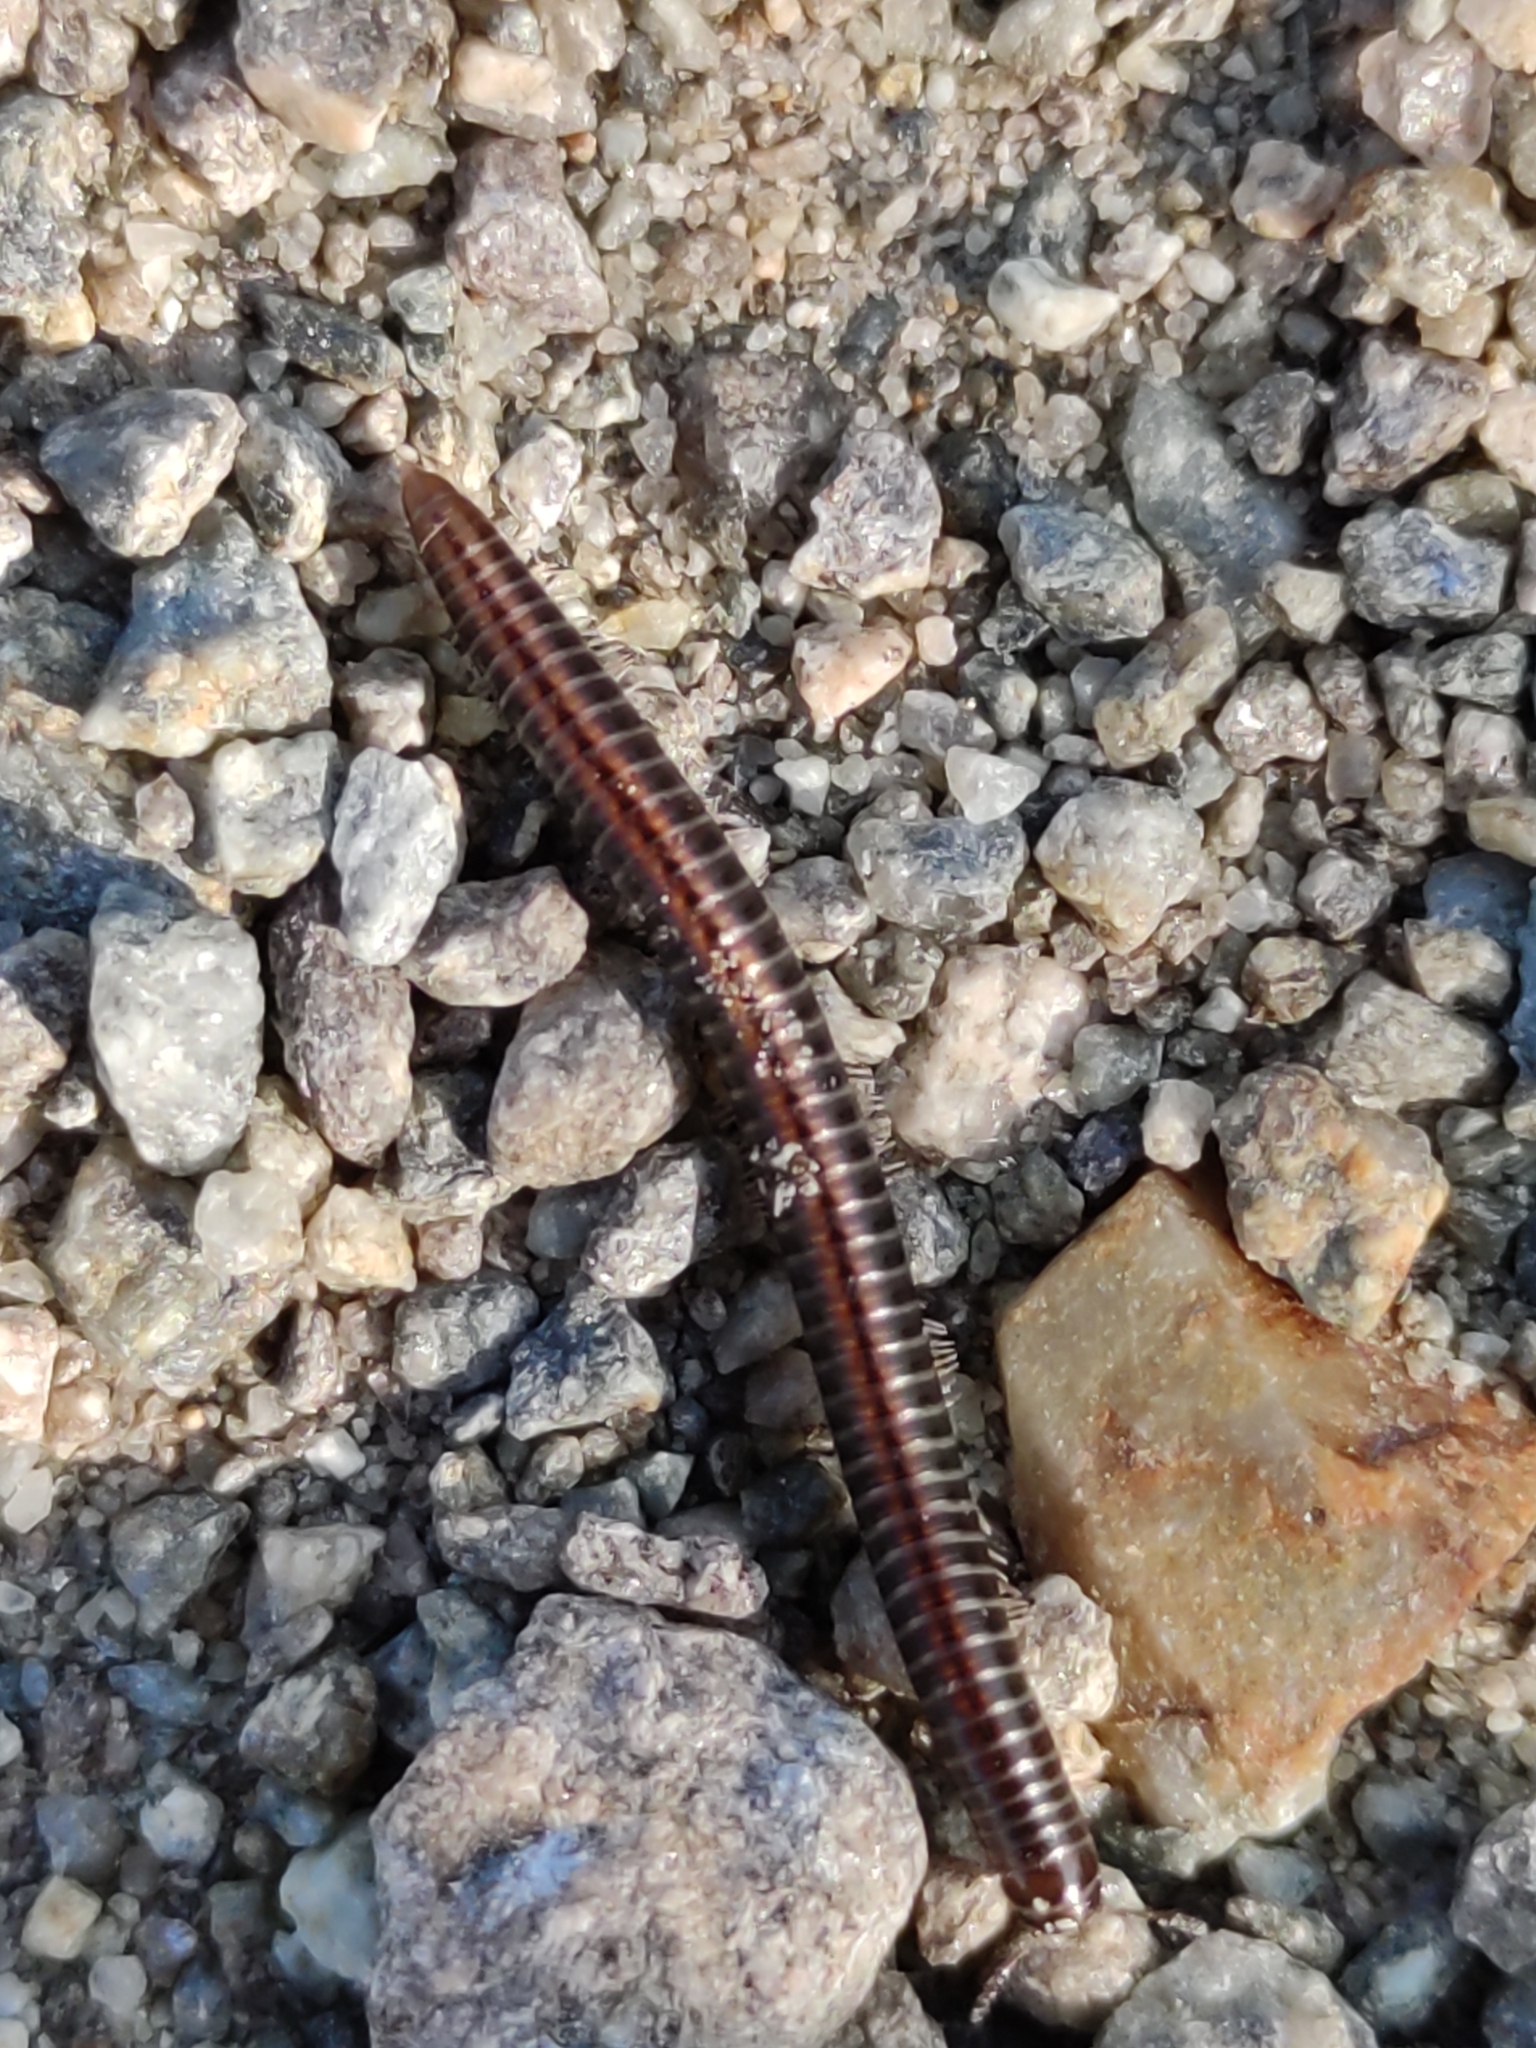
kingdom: Animalia
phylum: Arthropoda
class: Diplopoda
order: Julida
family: Julidae
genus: Ommatoiulus
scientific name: Ommatoiulus sabulosus
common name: Striped millipede
